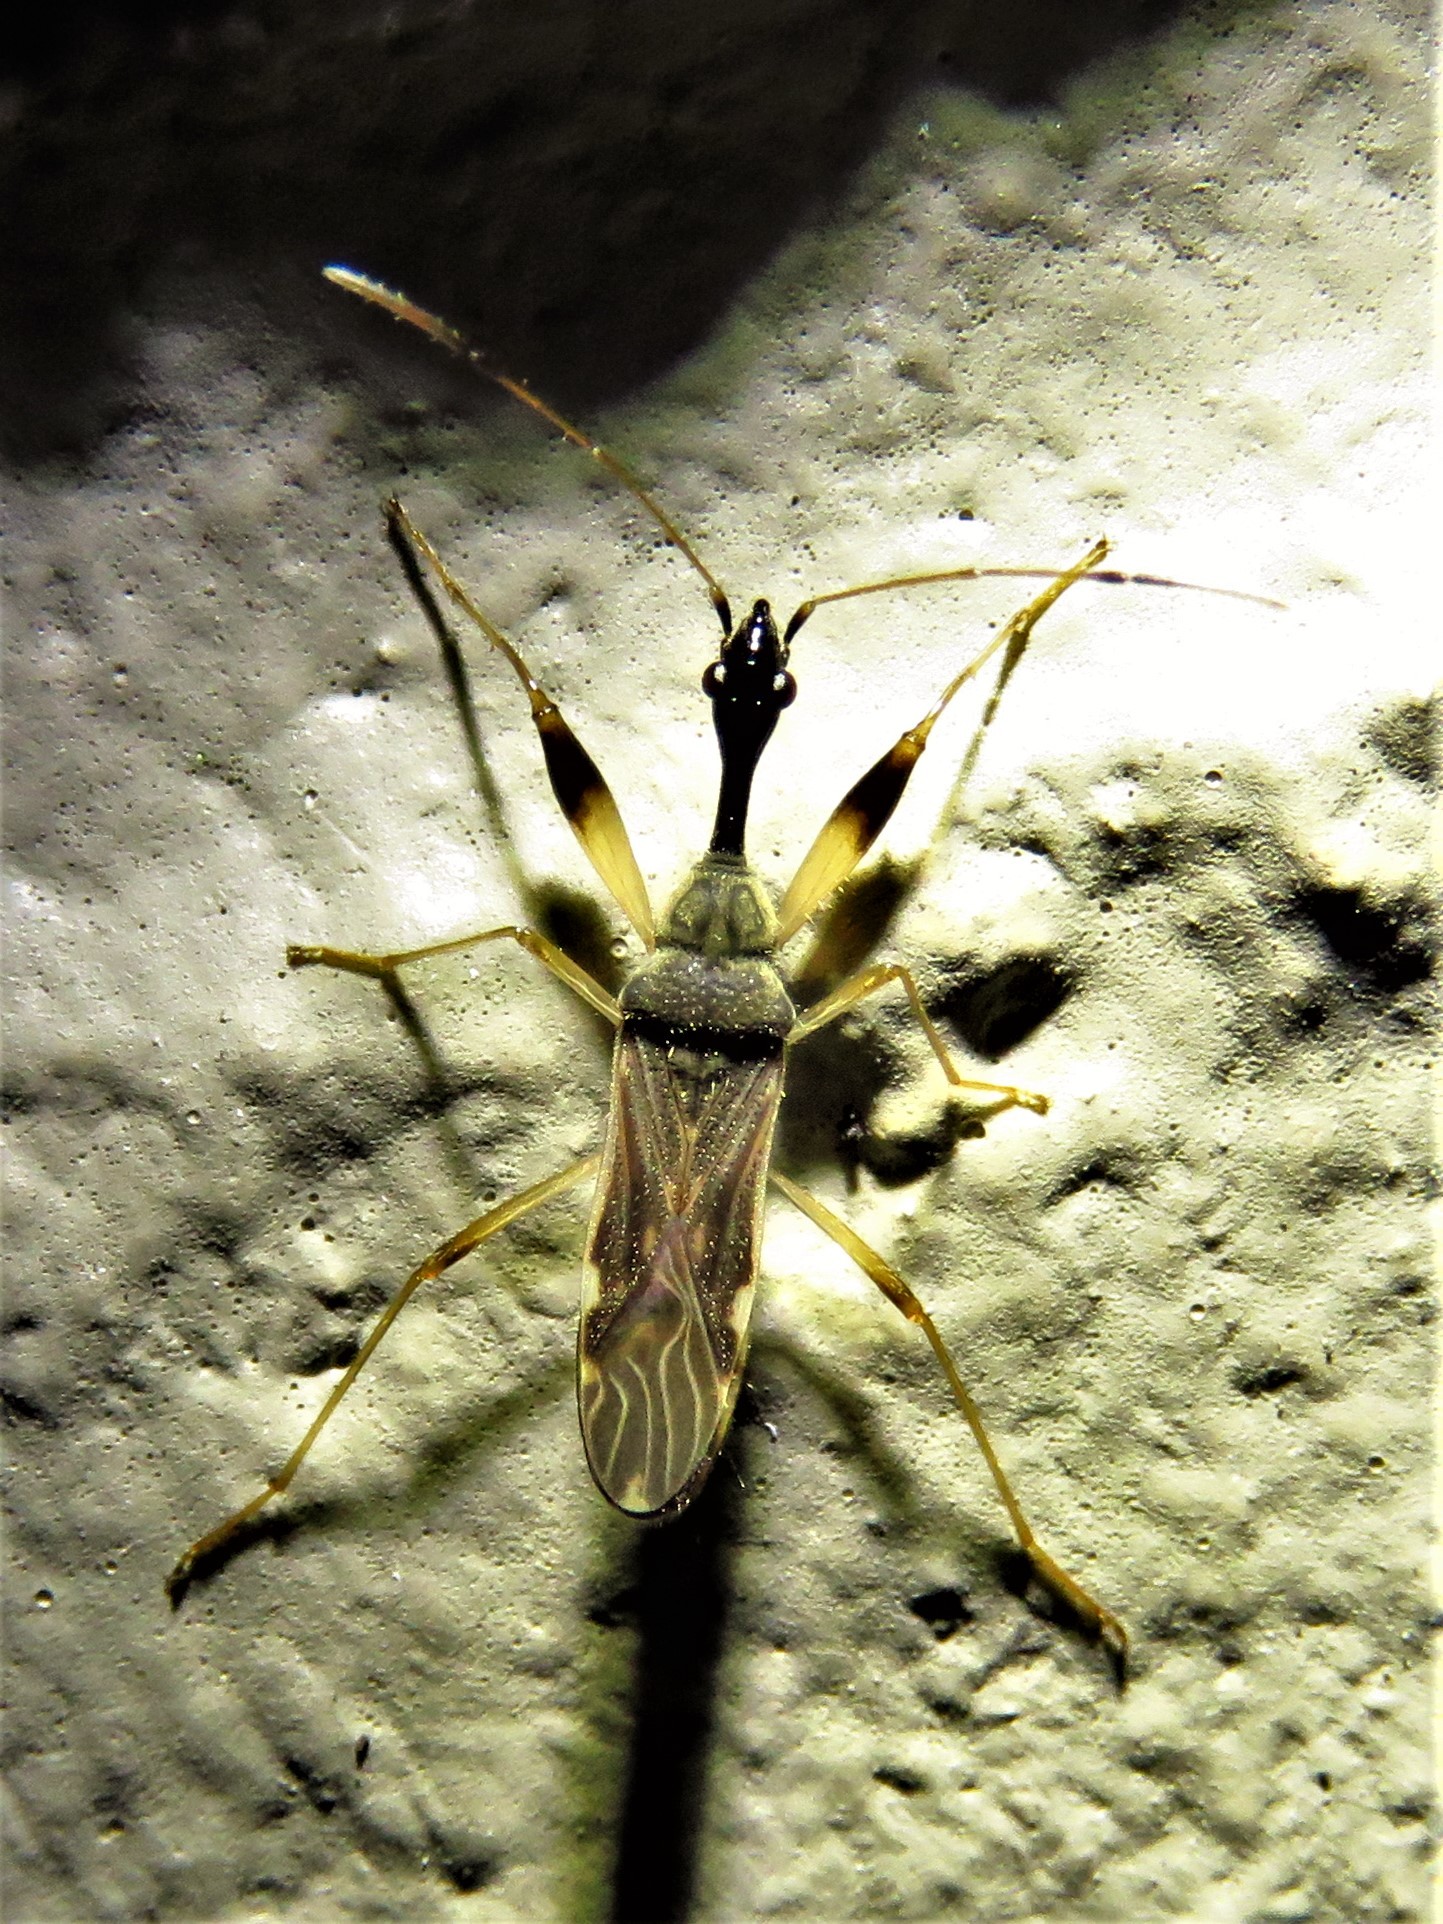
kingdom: Animalia
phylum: Arthropoda
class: Insecta
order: Hemiptera
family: Rhyparochromidae
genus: Myodocha
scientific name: Myodocha serripes
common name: Long-necked seed bug
